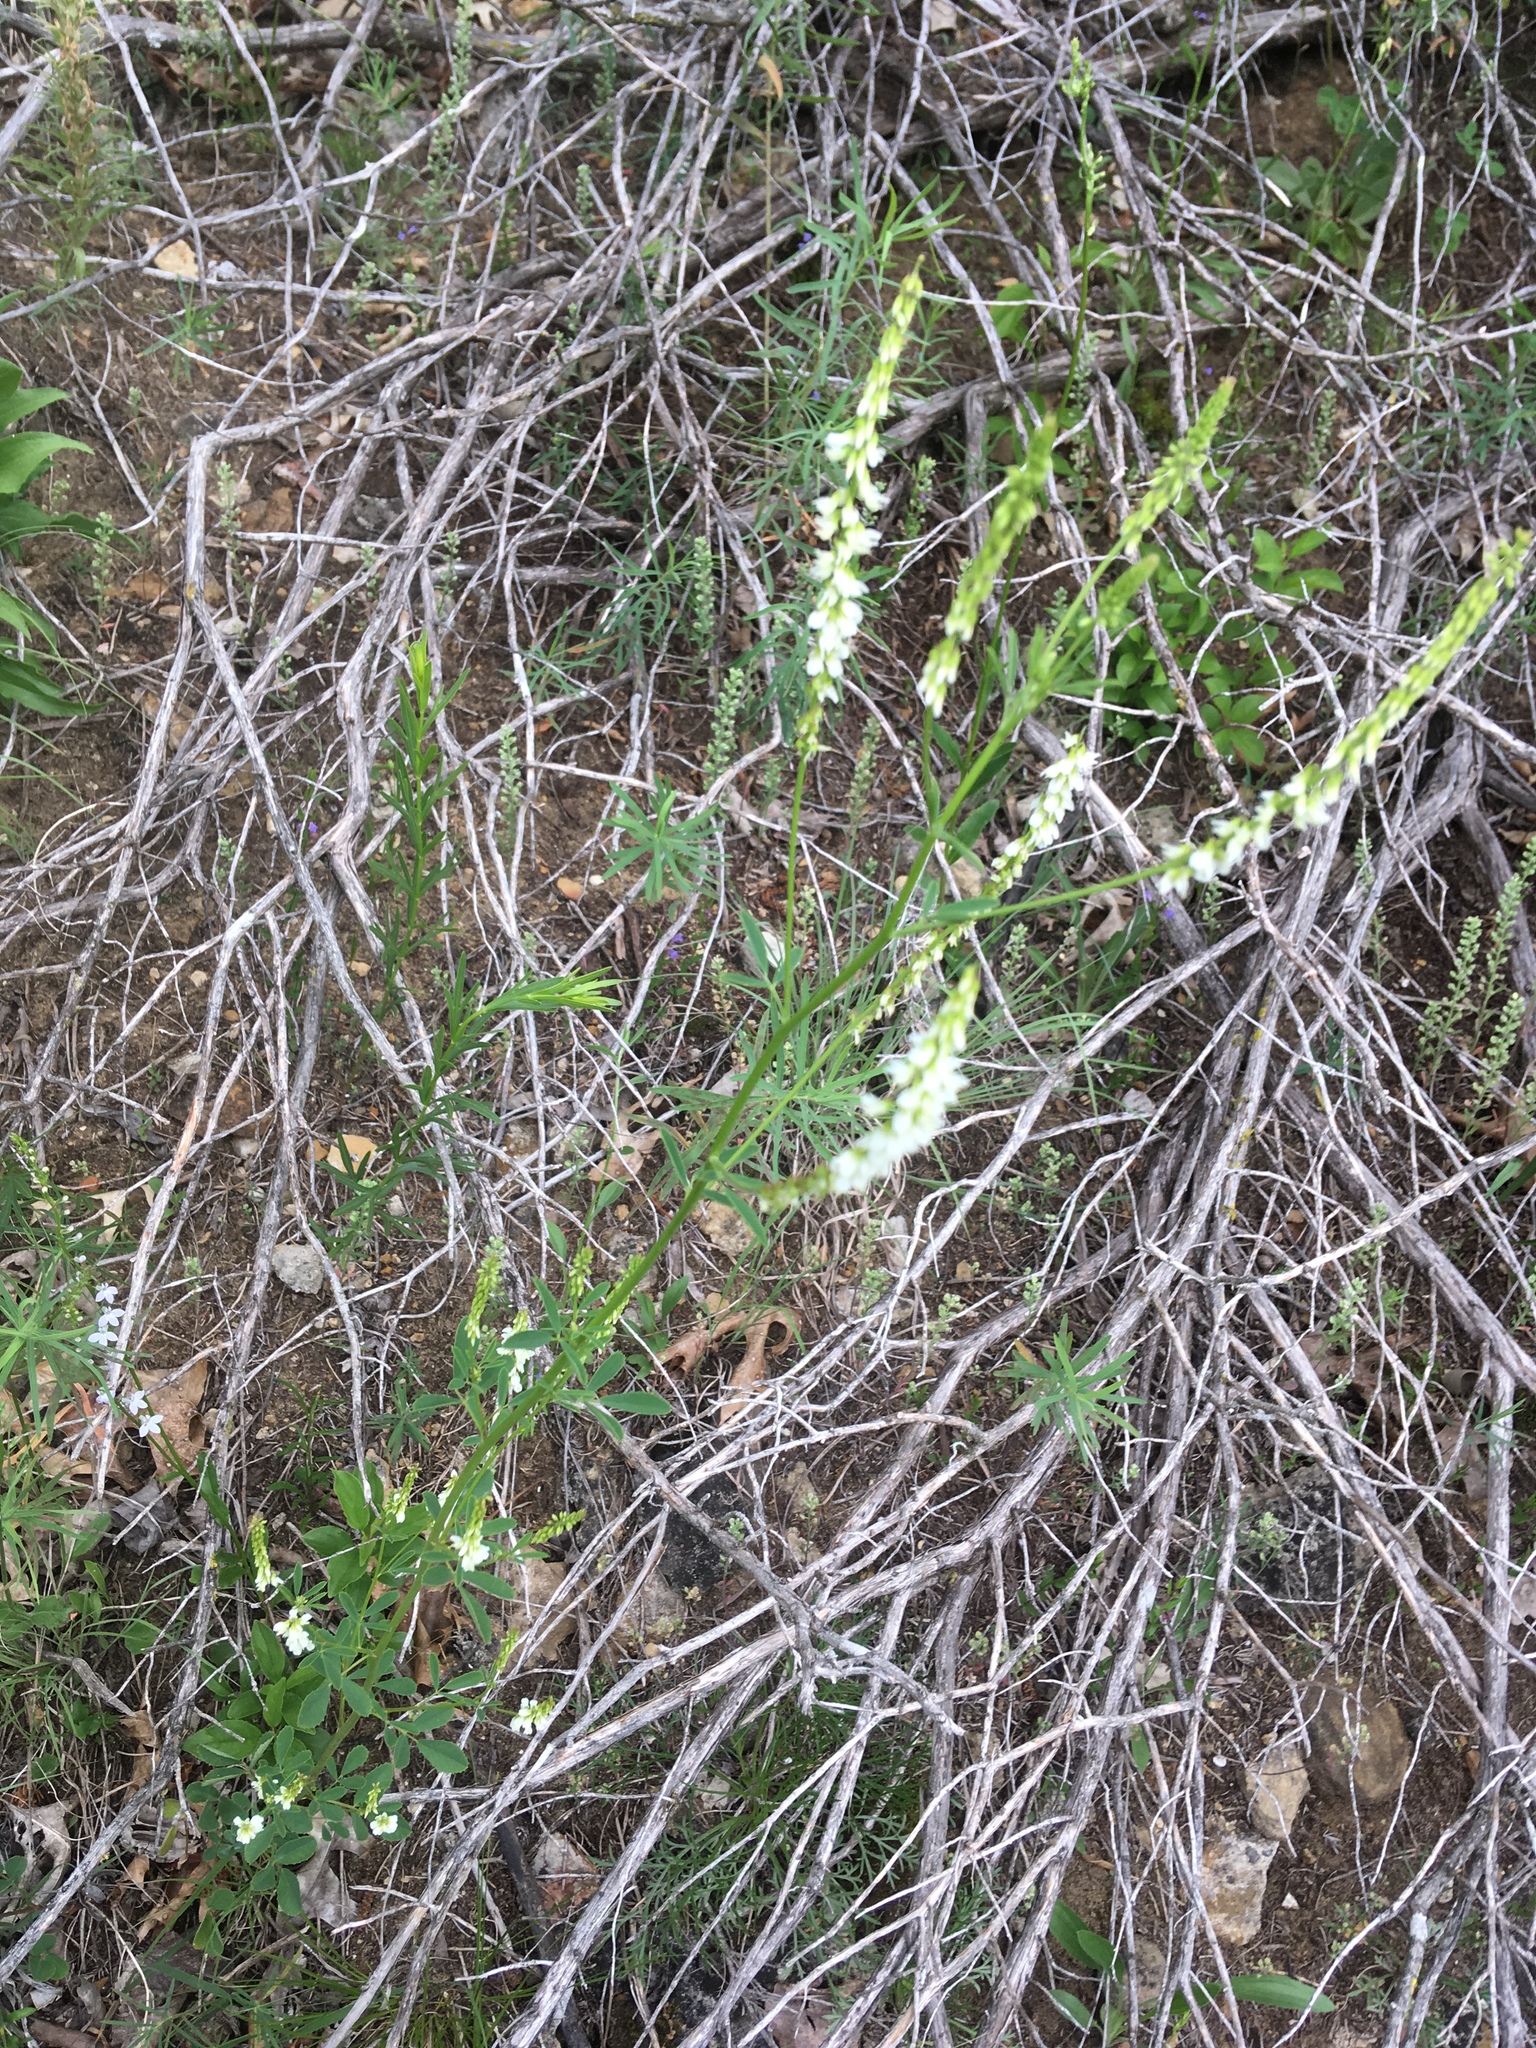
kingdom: Plantae
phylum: Tracheophyta
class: Magnoliopsida
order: Fabales
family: Fabaceae
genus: Melilotus
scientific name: Melilotus albus
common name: White melilot
